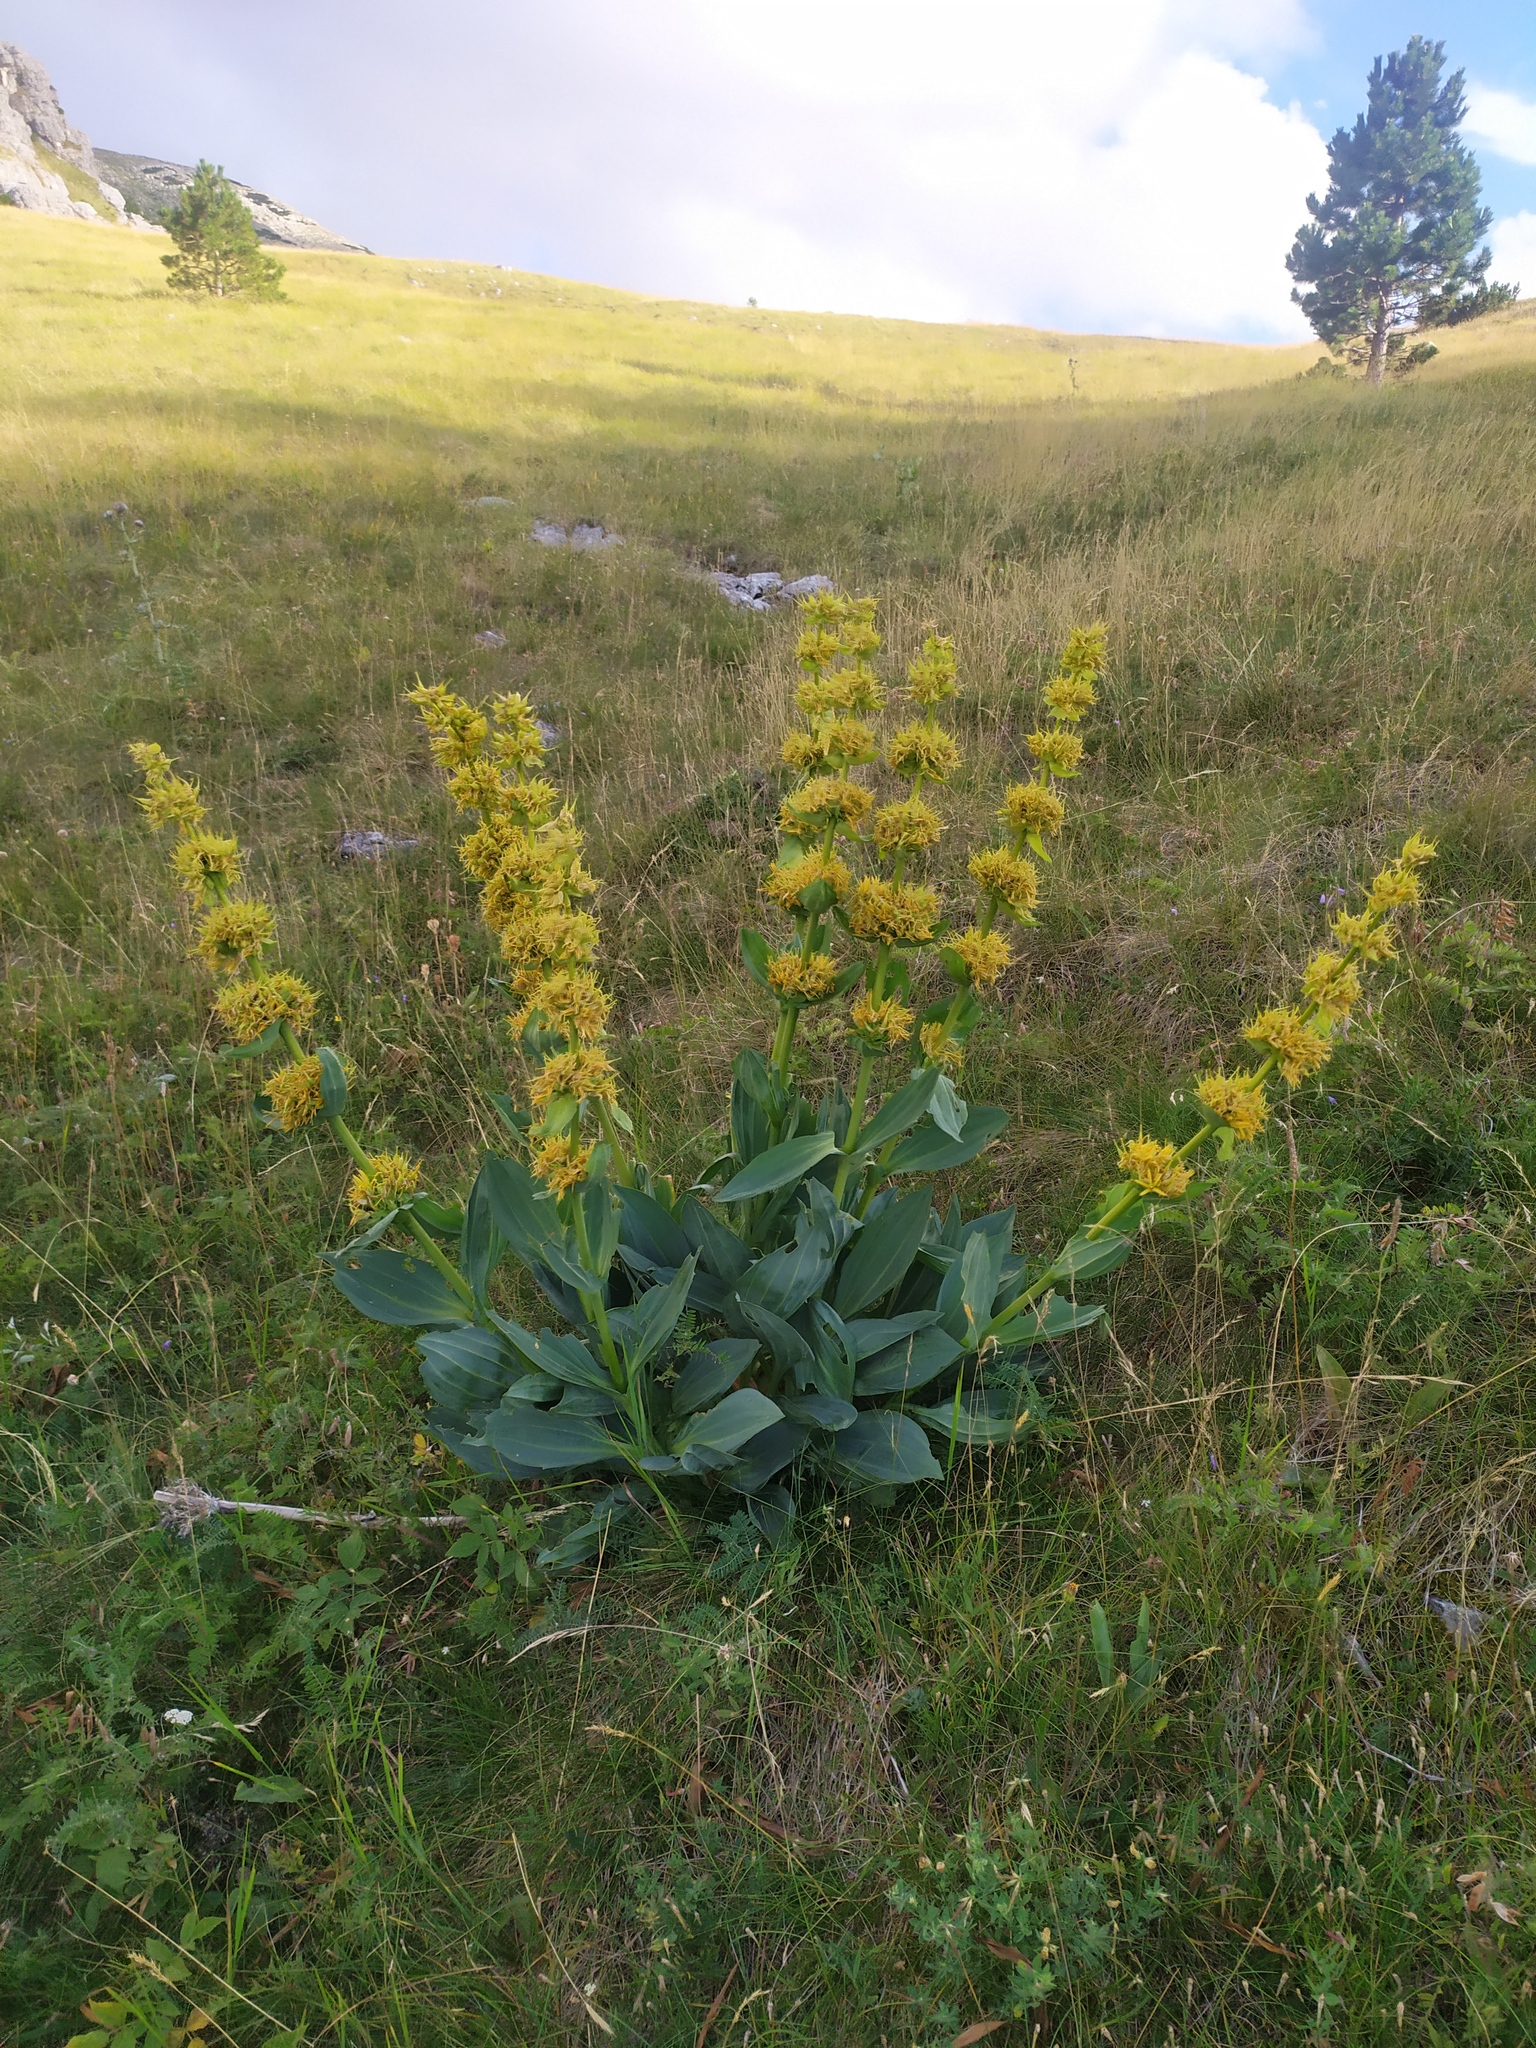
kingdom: Plantae
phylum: Tracheophyta
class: Magnoliopsida
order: Gentianales
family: Gentianaceae
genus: Gentiana
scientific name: Gentiana lutea
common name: Great yellow gentian
